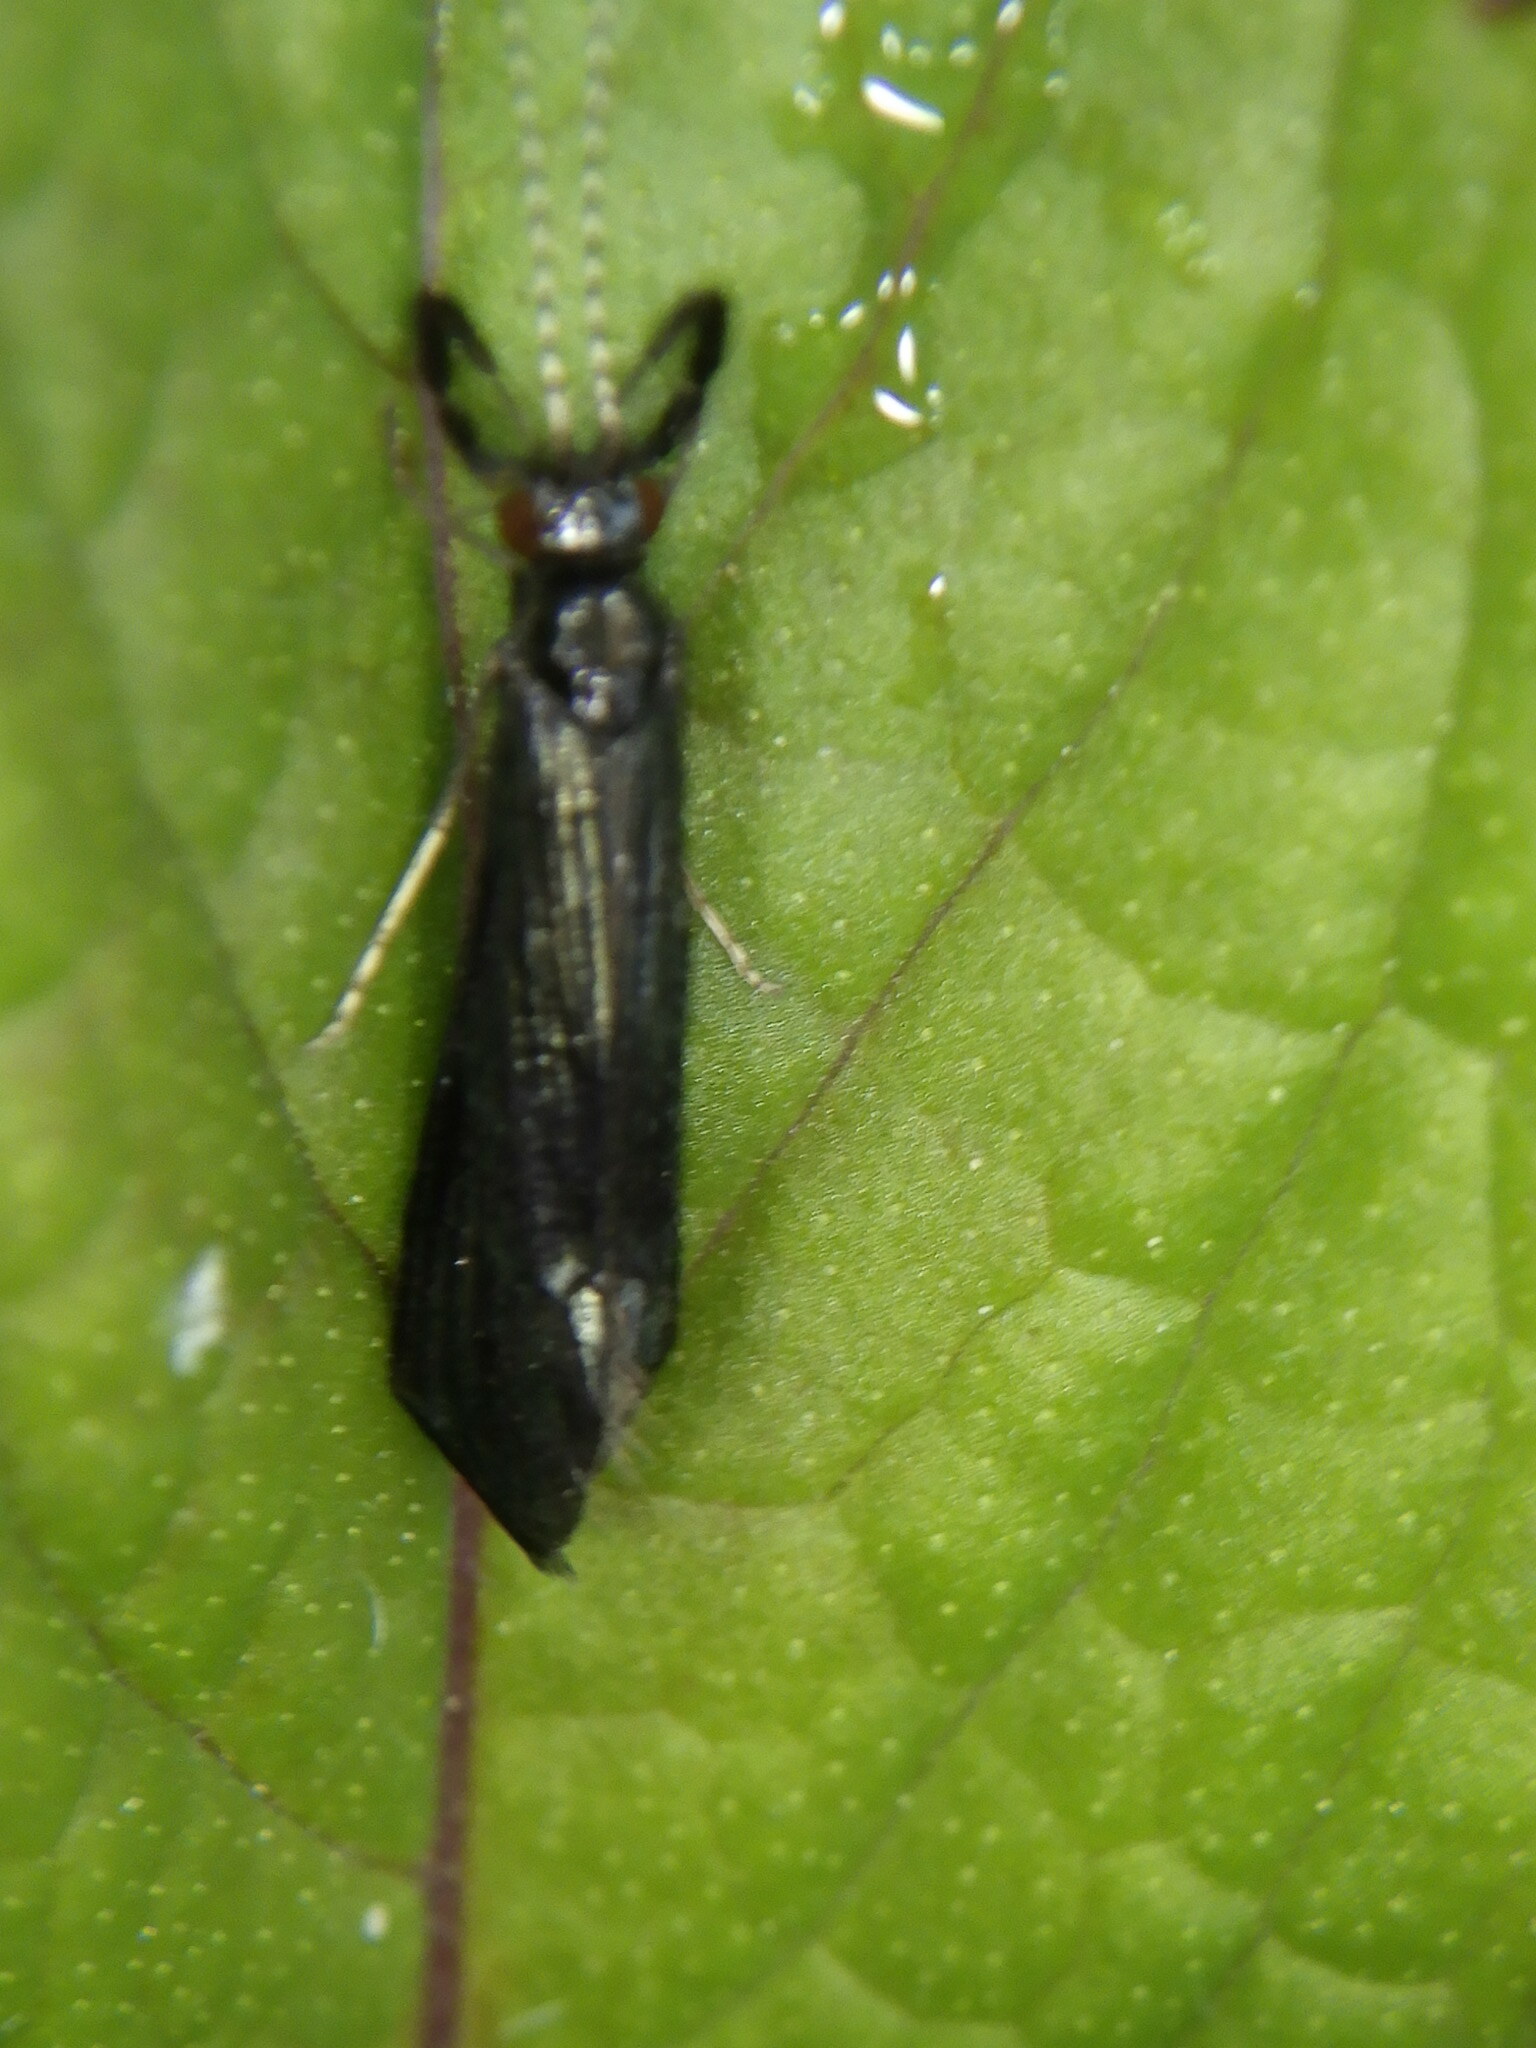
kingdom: Animalia
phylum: Arthropoda
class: Insecta
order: Trichoptera
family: Leptoceridae
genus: Mystacides
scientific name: Mystacides sepulchralis
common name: Black dancer caddisfly
